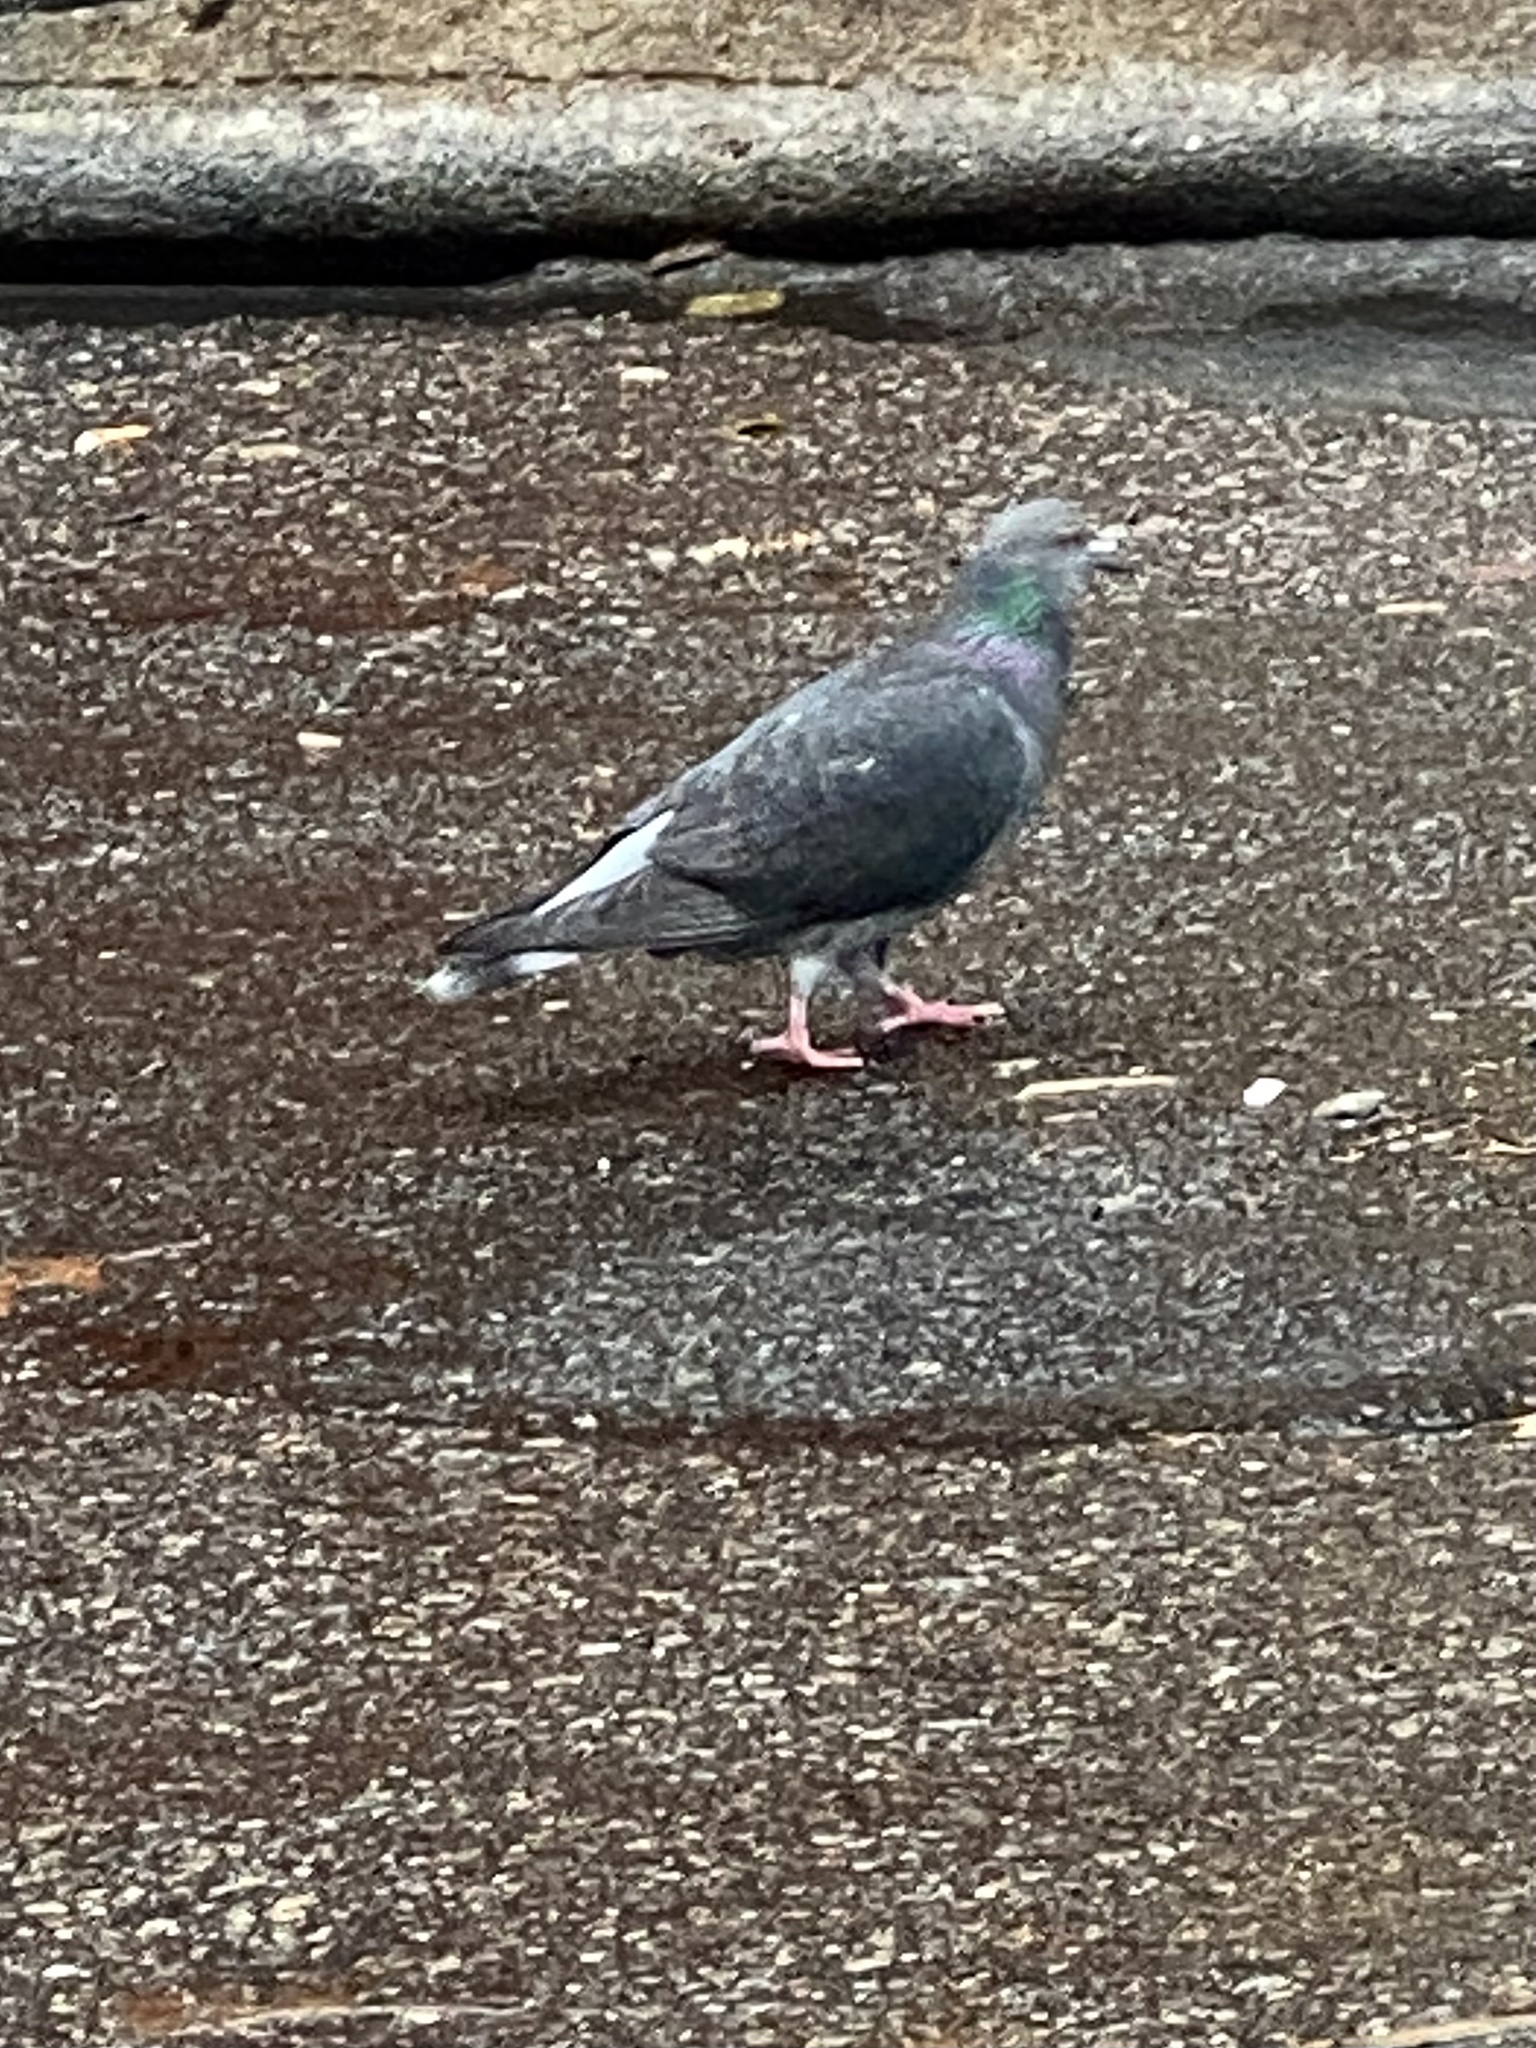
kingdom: Animalia
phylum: Chordata
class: Aves
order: Columbiformes
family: Columbidae
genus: Columba
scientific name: Columba livia
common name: Rock pigeon
